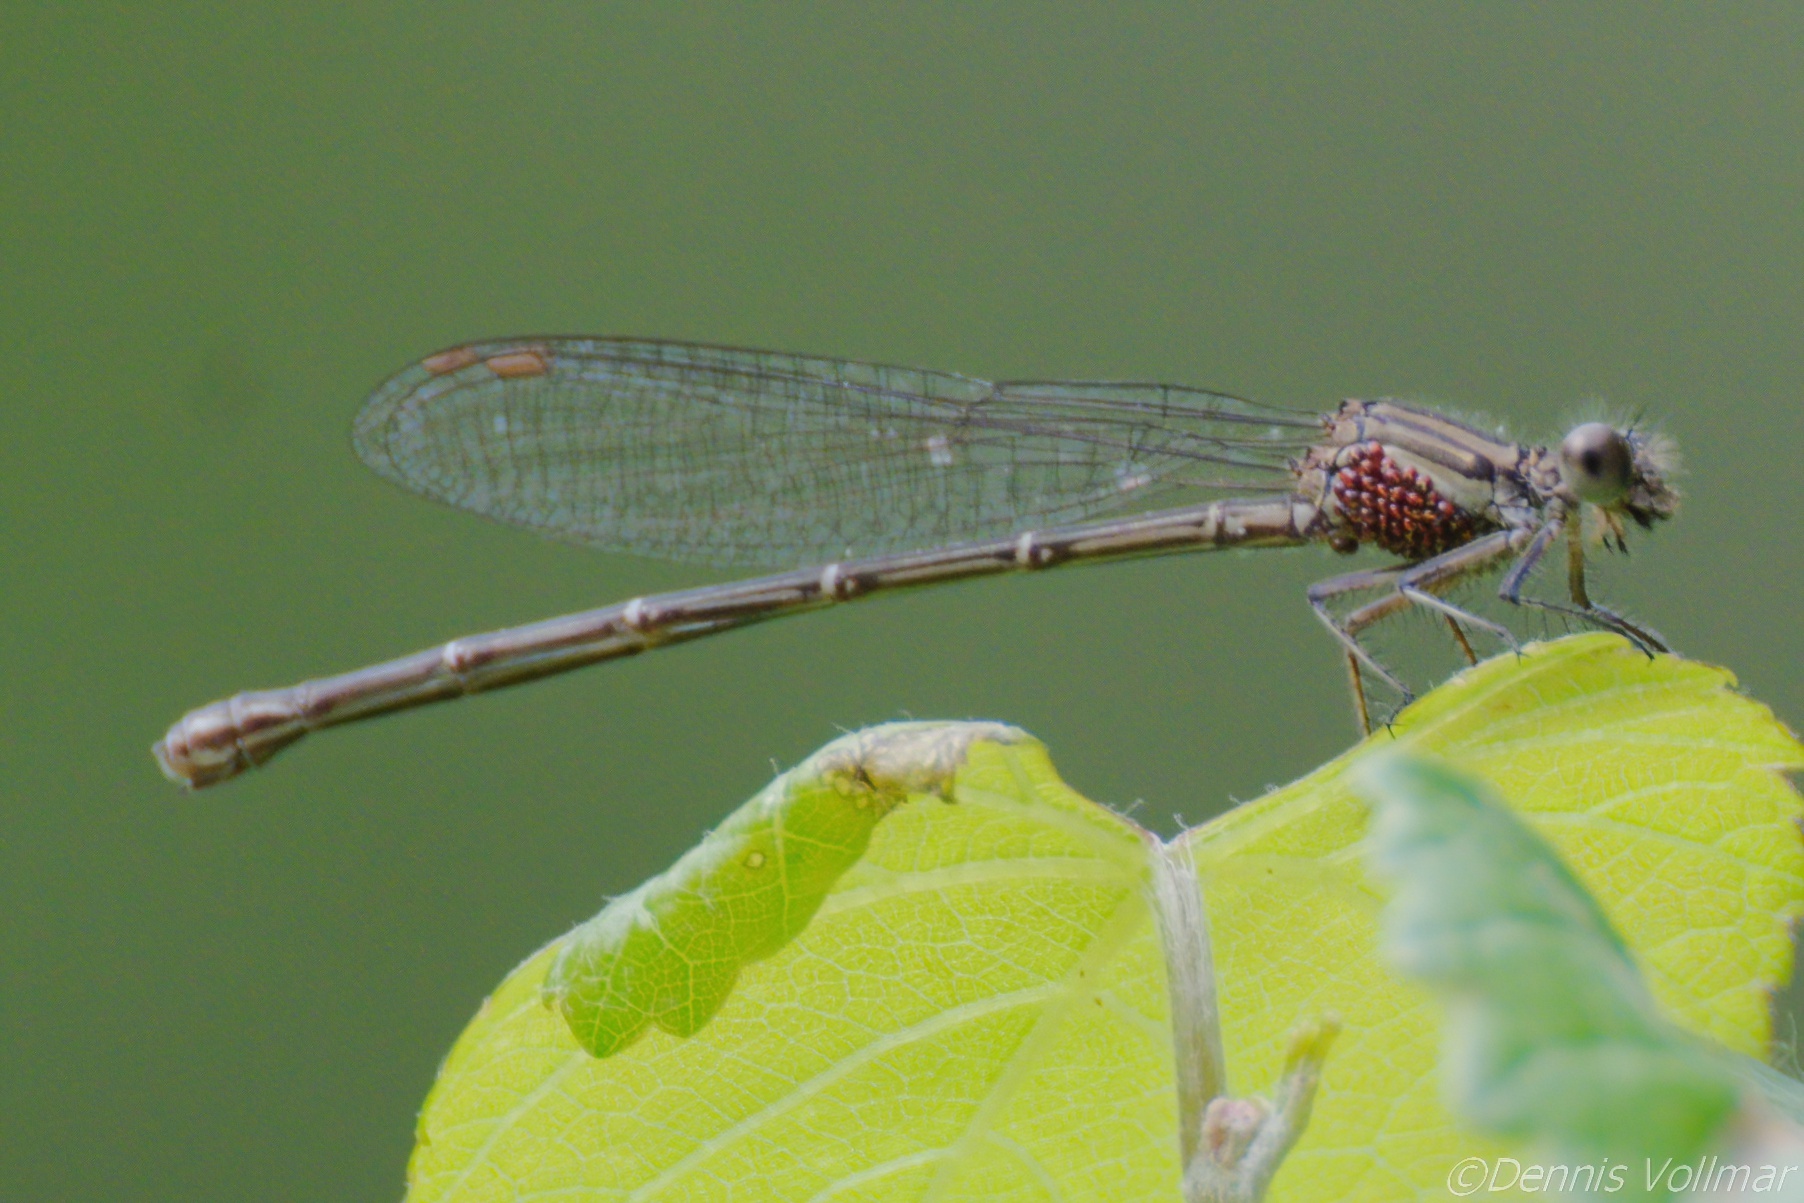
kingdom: Animalia
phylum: Arthropoda
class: Insecta
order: Odonata
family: Coenagrionidae
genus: Argia
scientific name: Argia translata
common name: Dusky dancer
